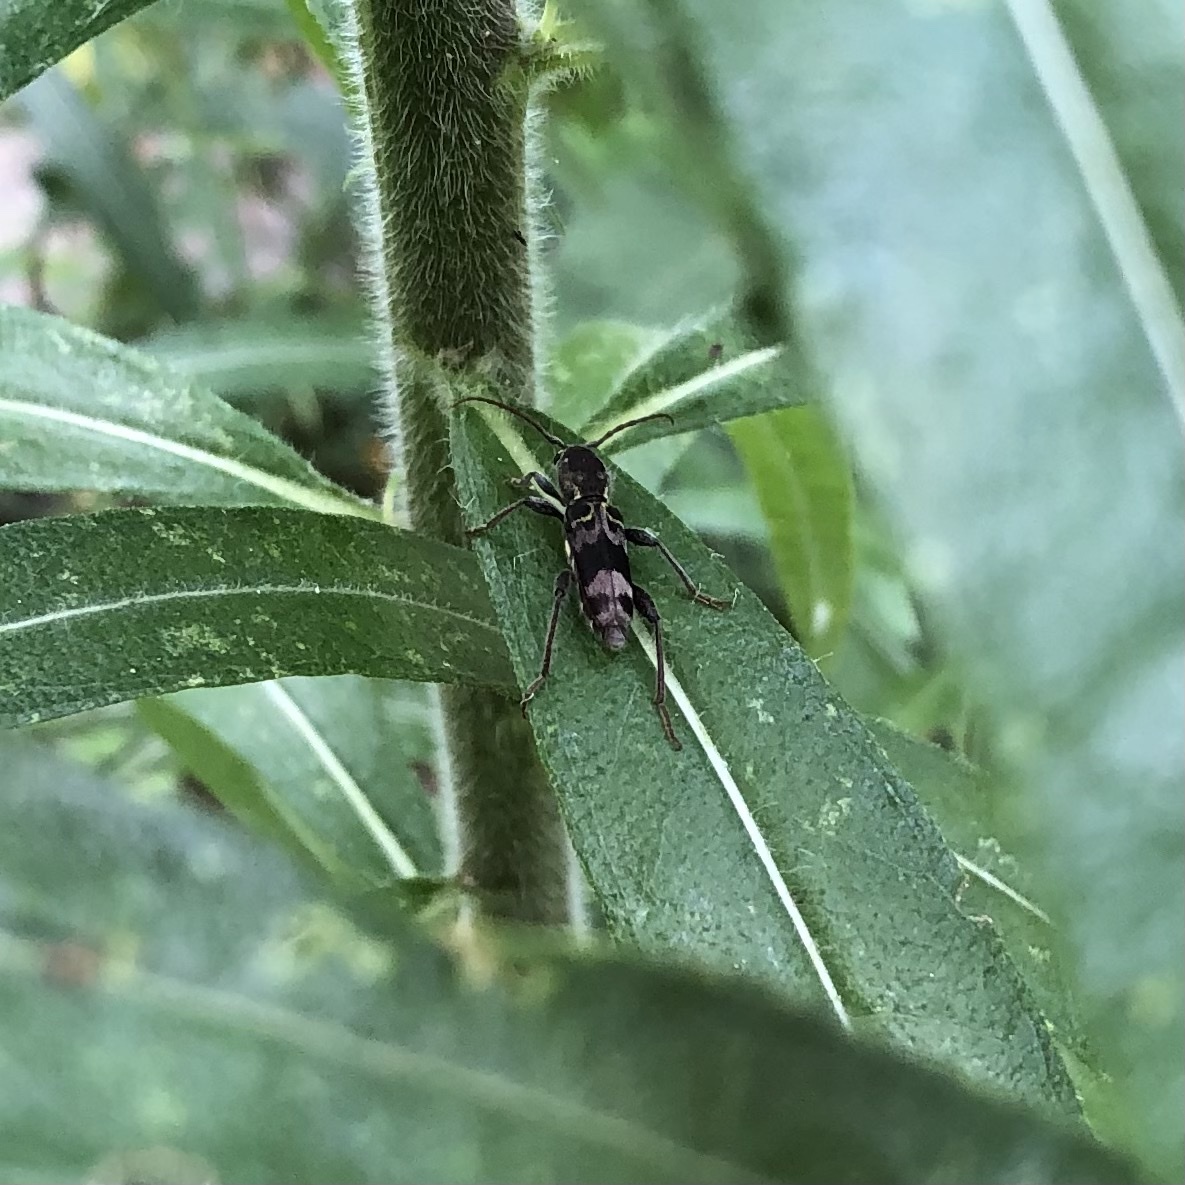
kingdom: Animalia
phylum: Arthropoda
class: Insecta
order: Coleoptera
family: Cerambycidae
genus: Xylotrechus
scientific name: Xylotrechus colonus
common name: Long-horned beetle
